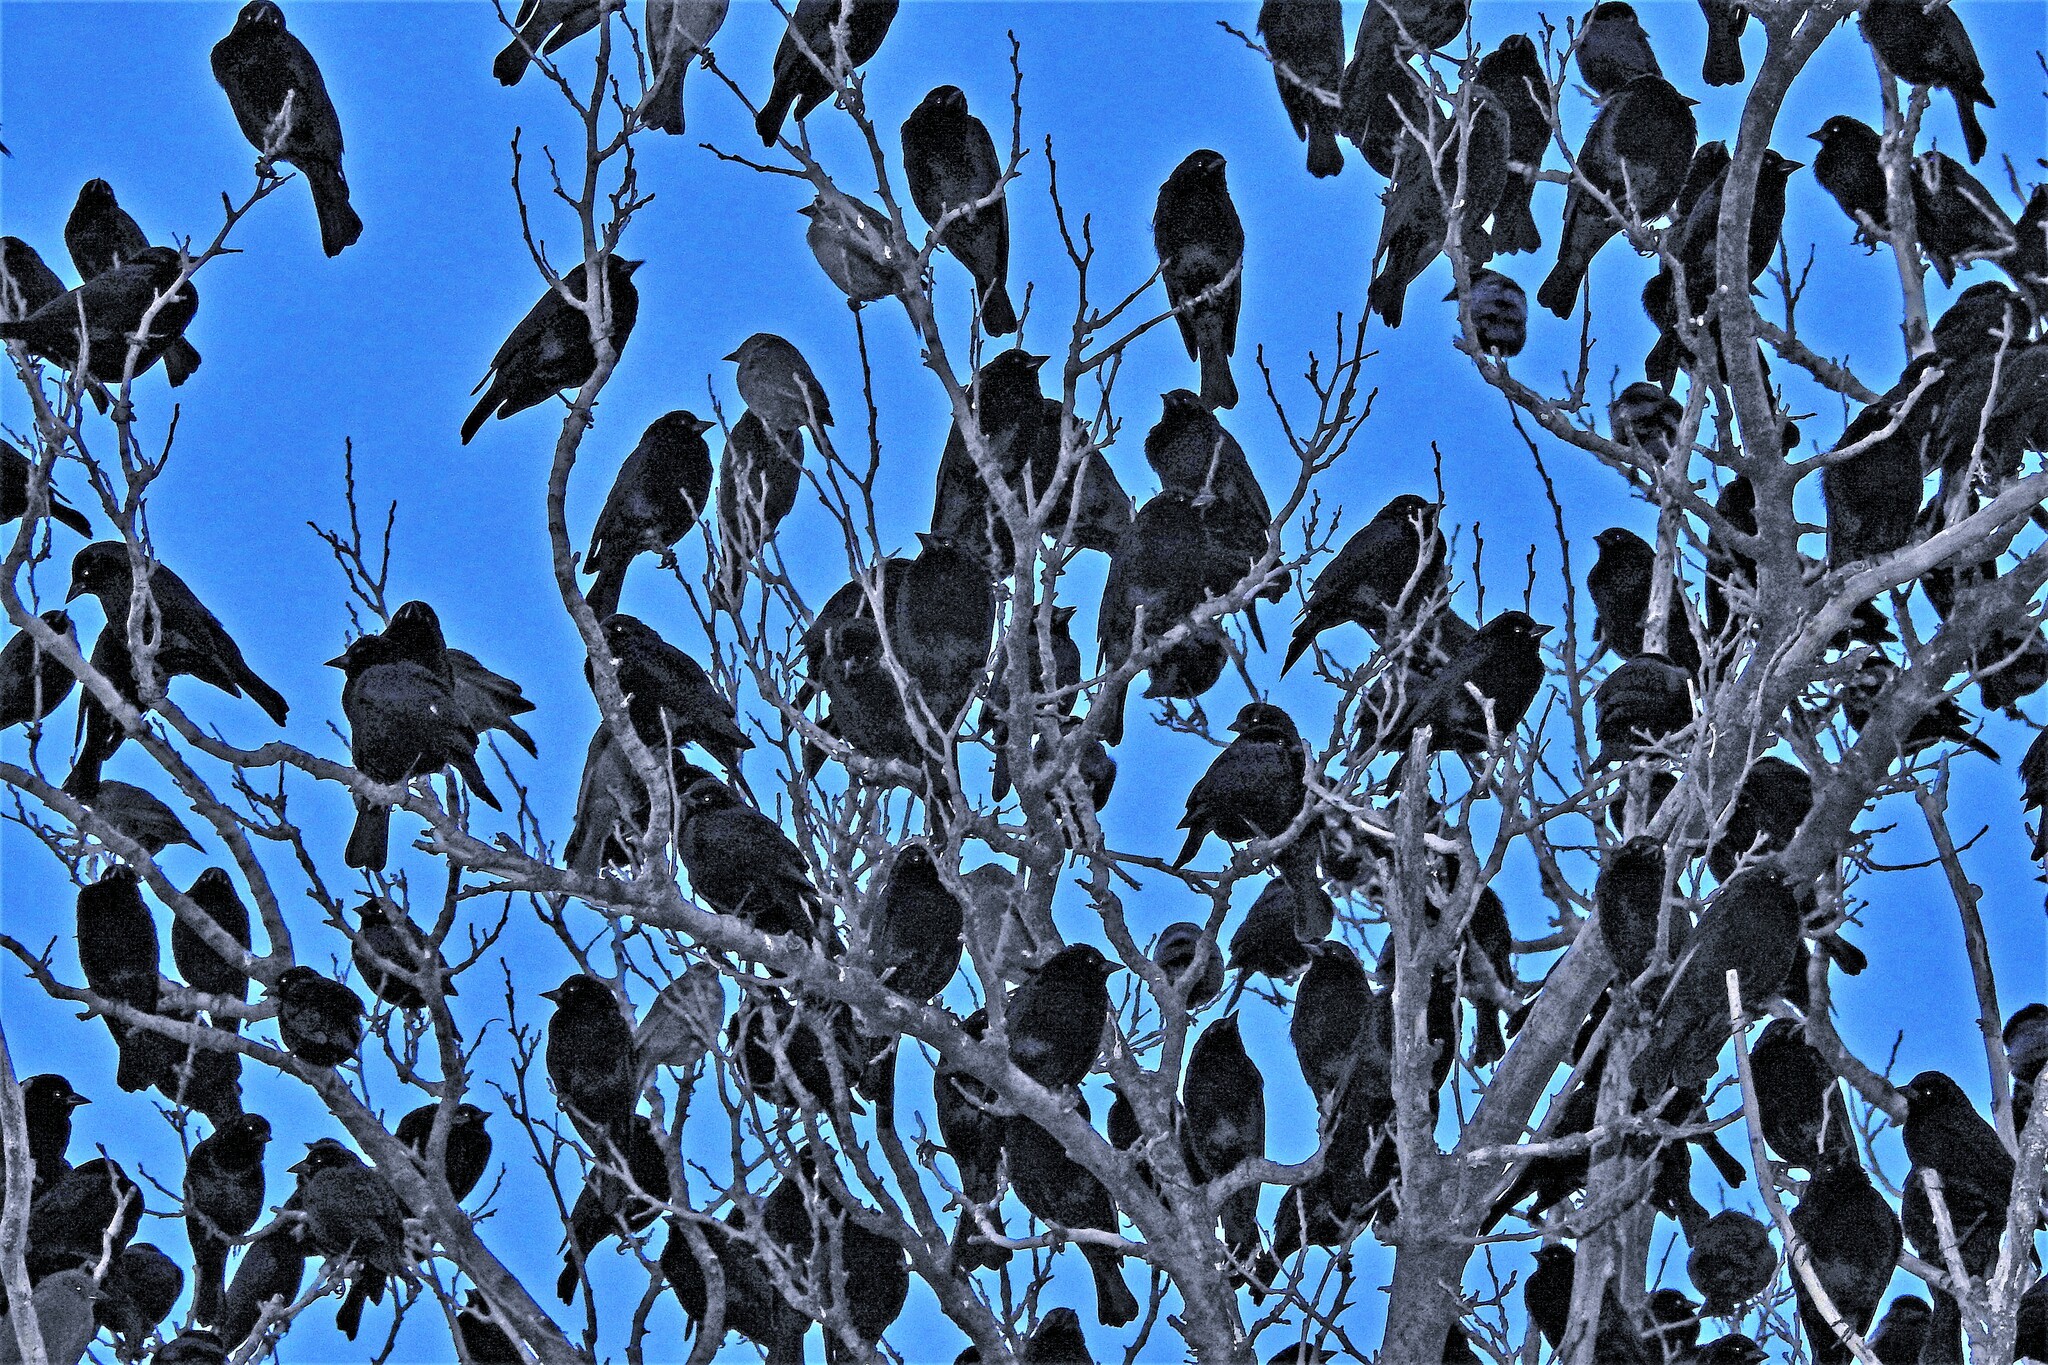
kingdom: Animalia
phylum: Chordata
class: Aves
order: Passeriformes
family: Icteridae
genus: Molothrus
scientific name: Molothrus bonariensis
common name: Shiny cowbird
